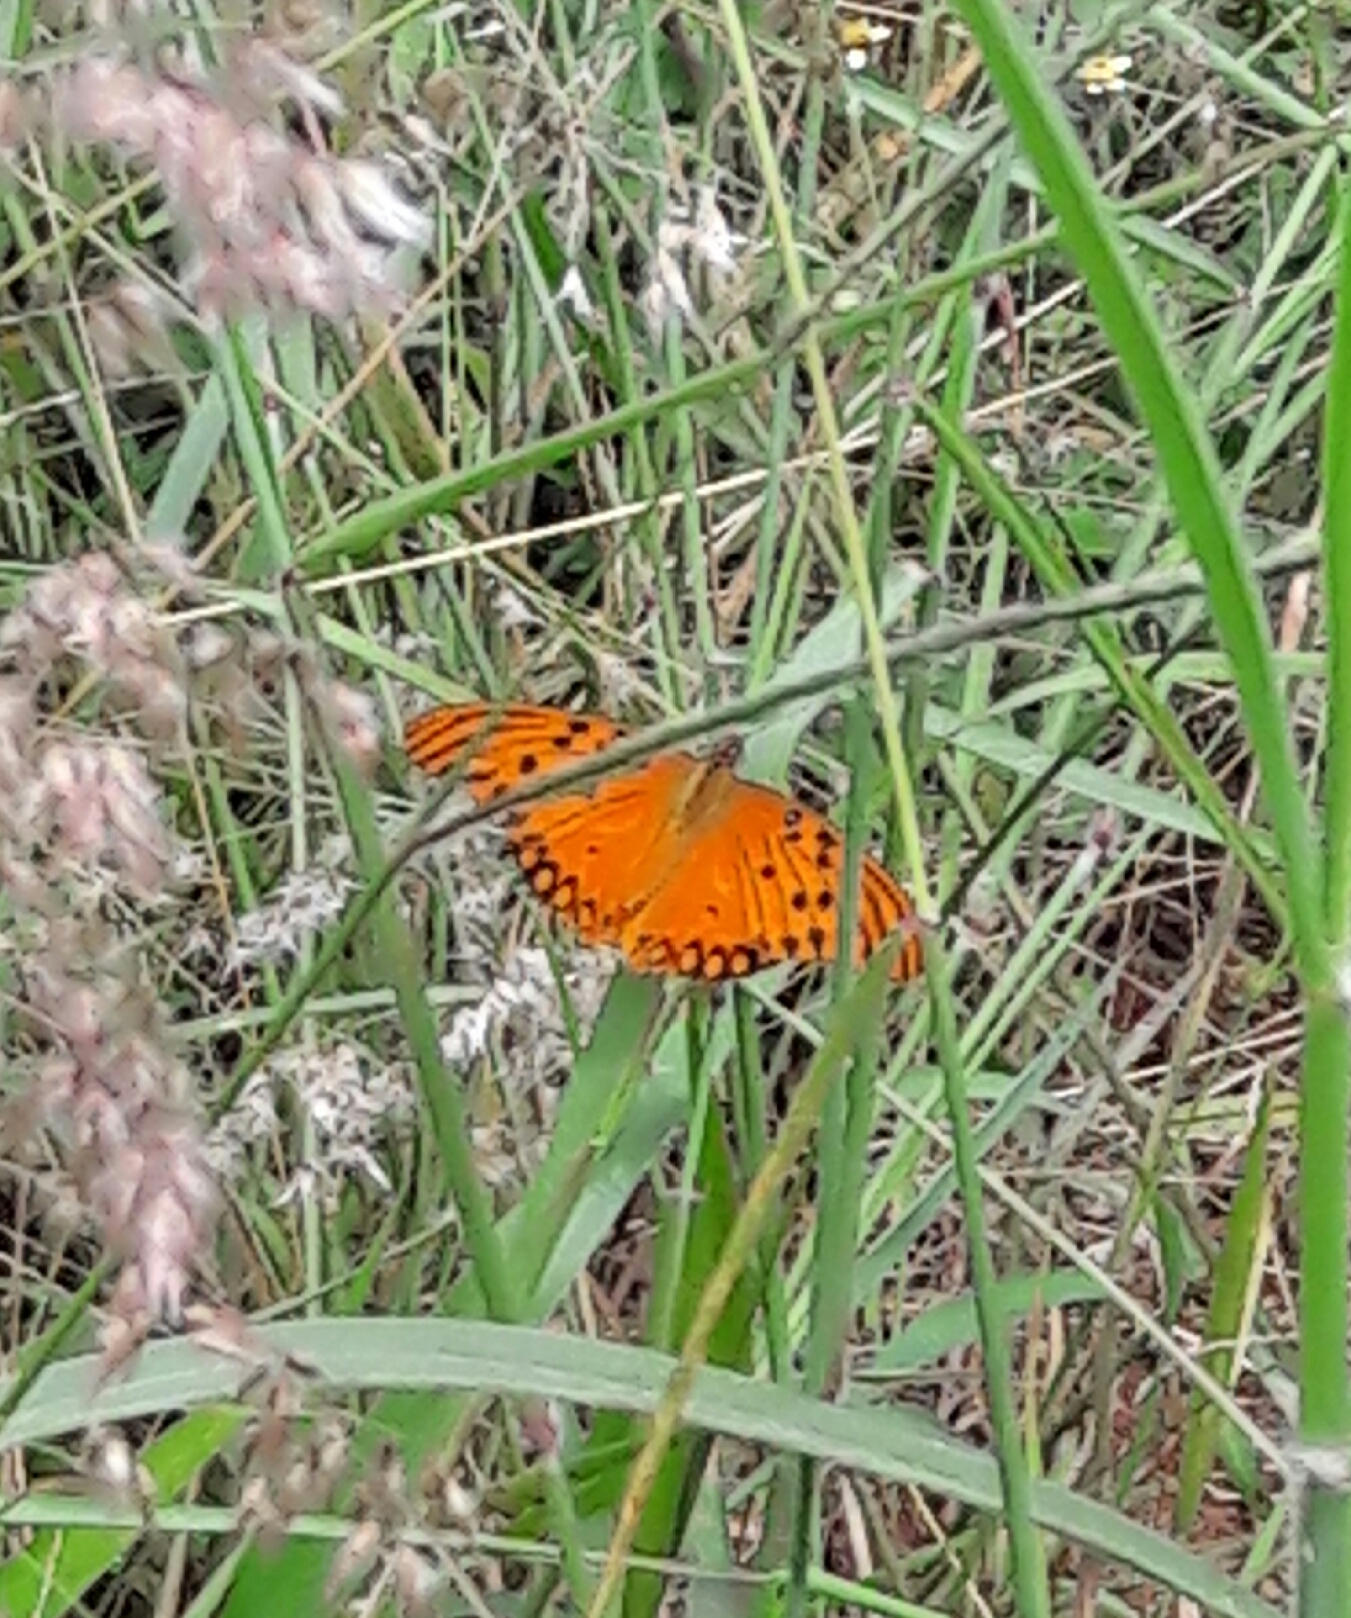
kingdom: Animalia
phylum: Arthropoda
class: Insecta
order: Lepidoptera
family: Nymphalidae
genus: Dione
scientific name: Dione vanillae
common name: Gulf fritillary
